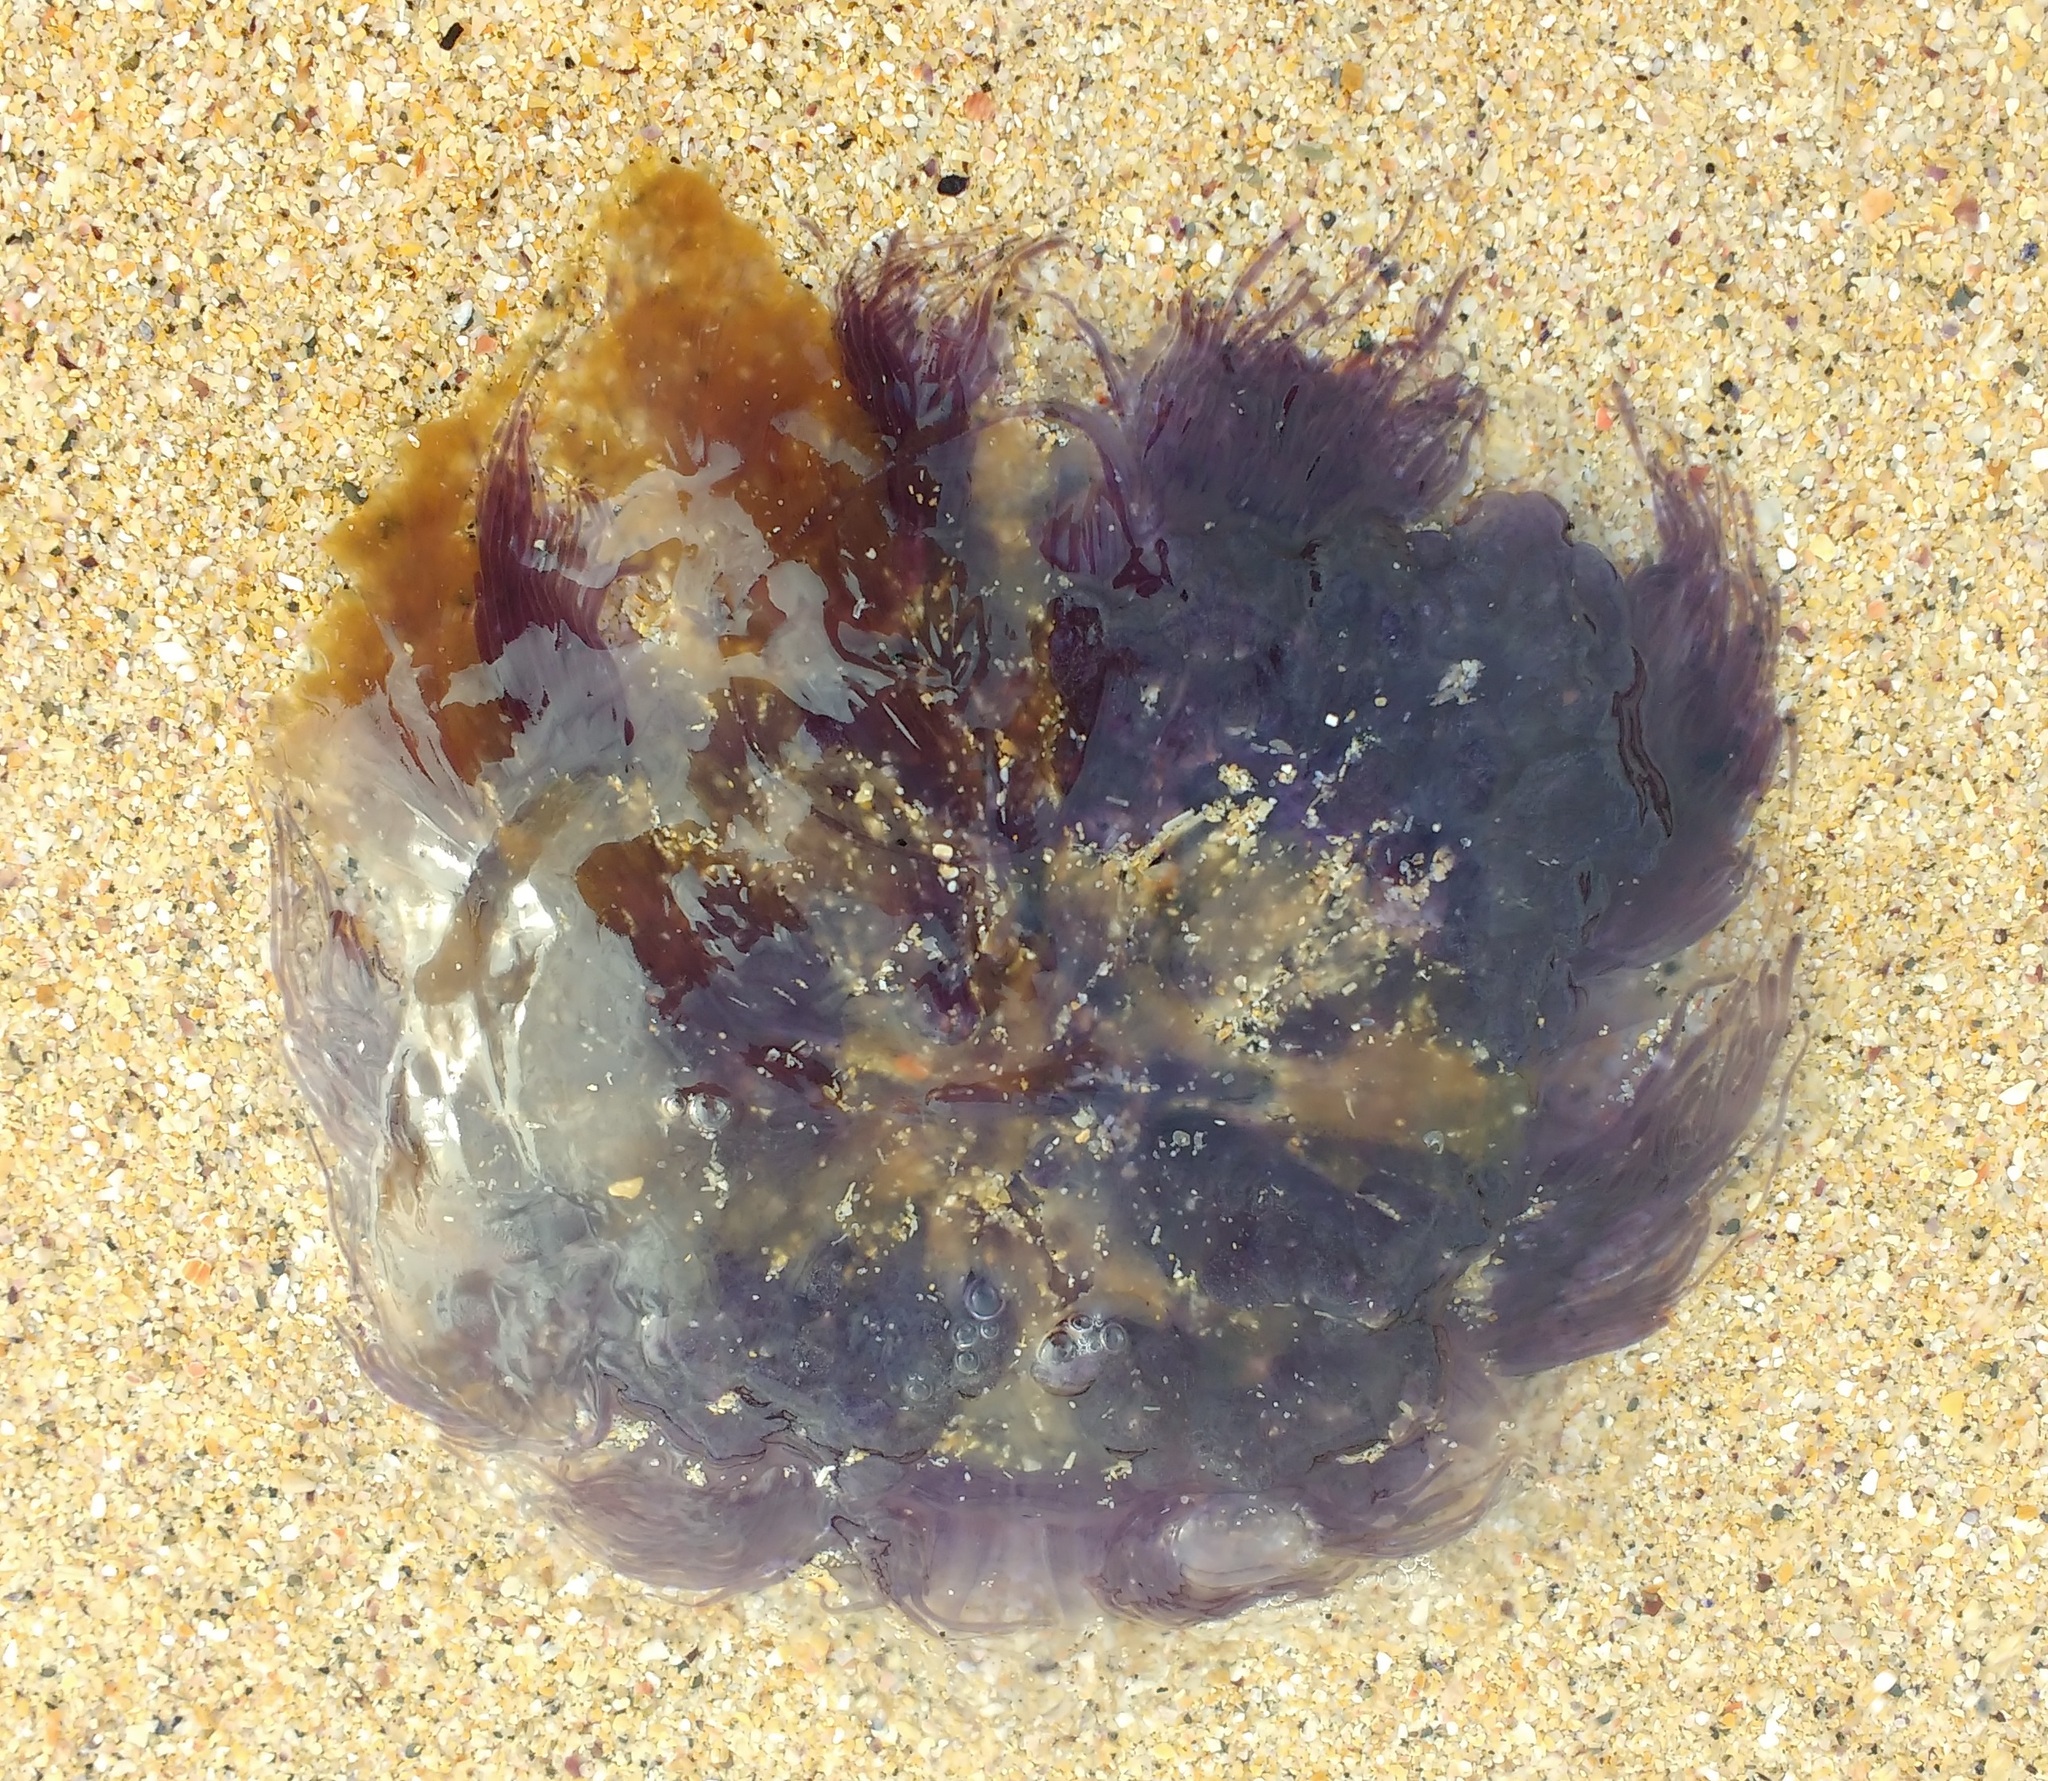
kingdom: Animalia
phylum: Cnidaria
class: Scyphozoa
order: Semaeostomeae
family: Cyaneidae
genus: Cyanea
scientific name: Cyanea lamarckii
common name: Blue jellyfish
